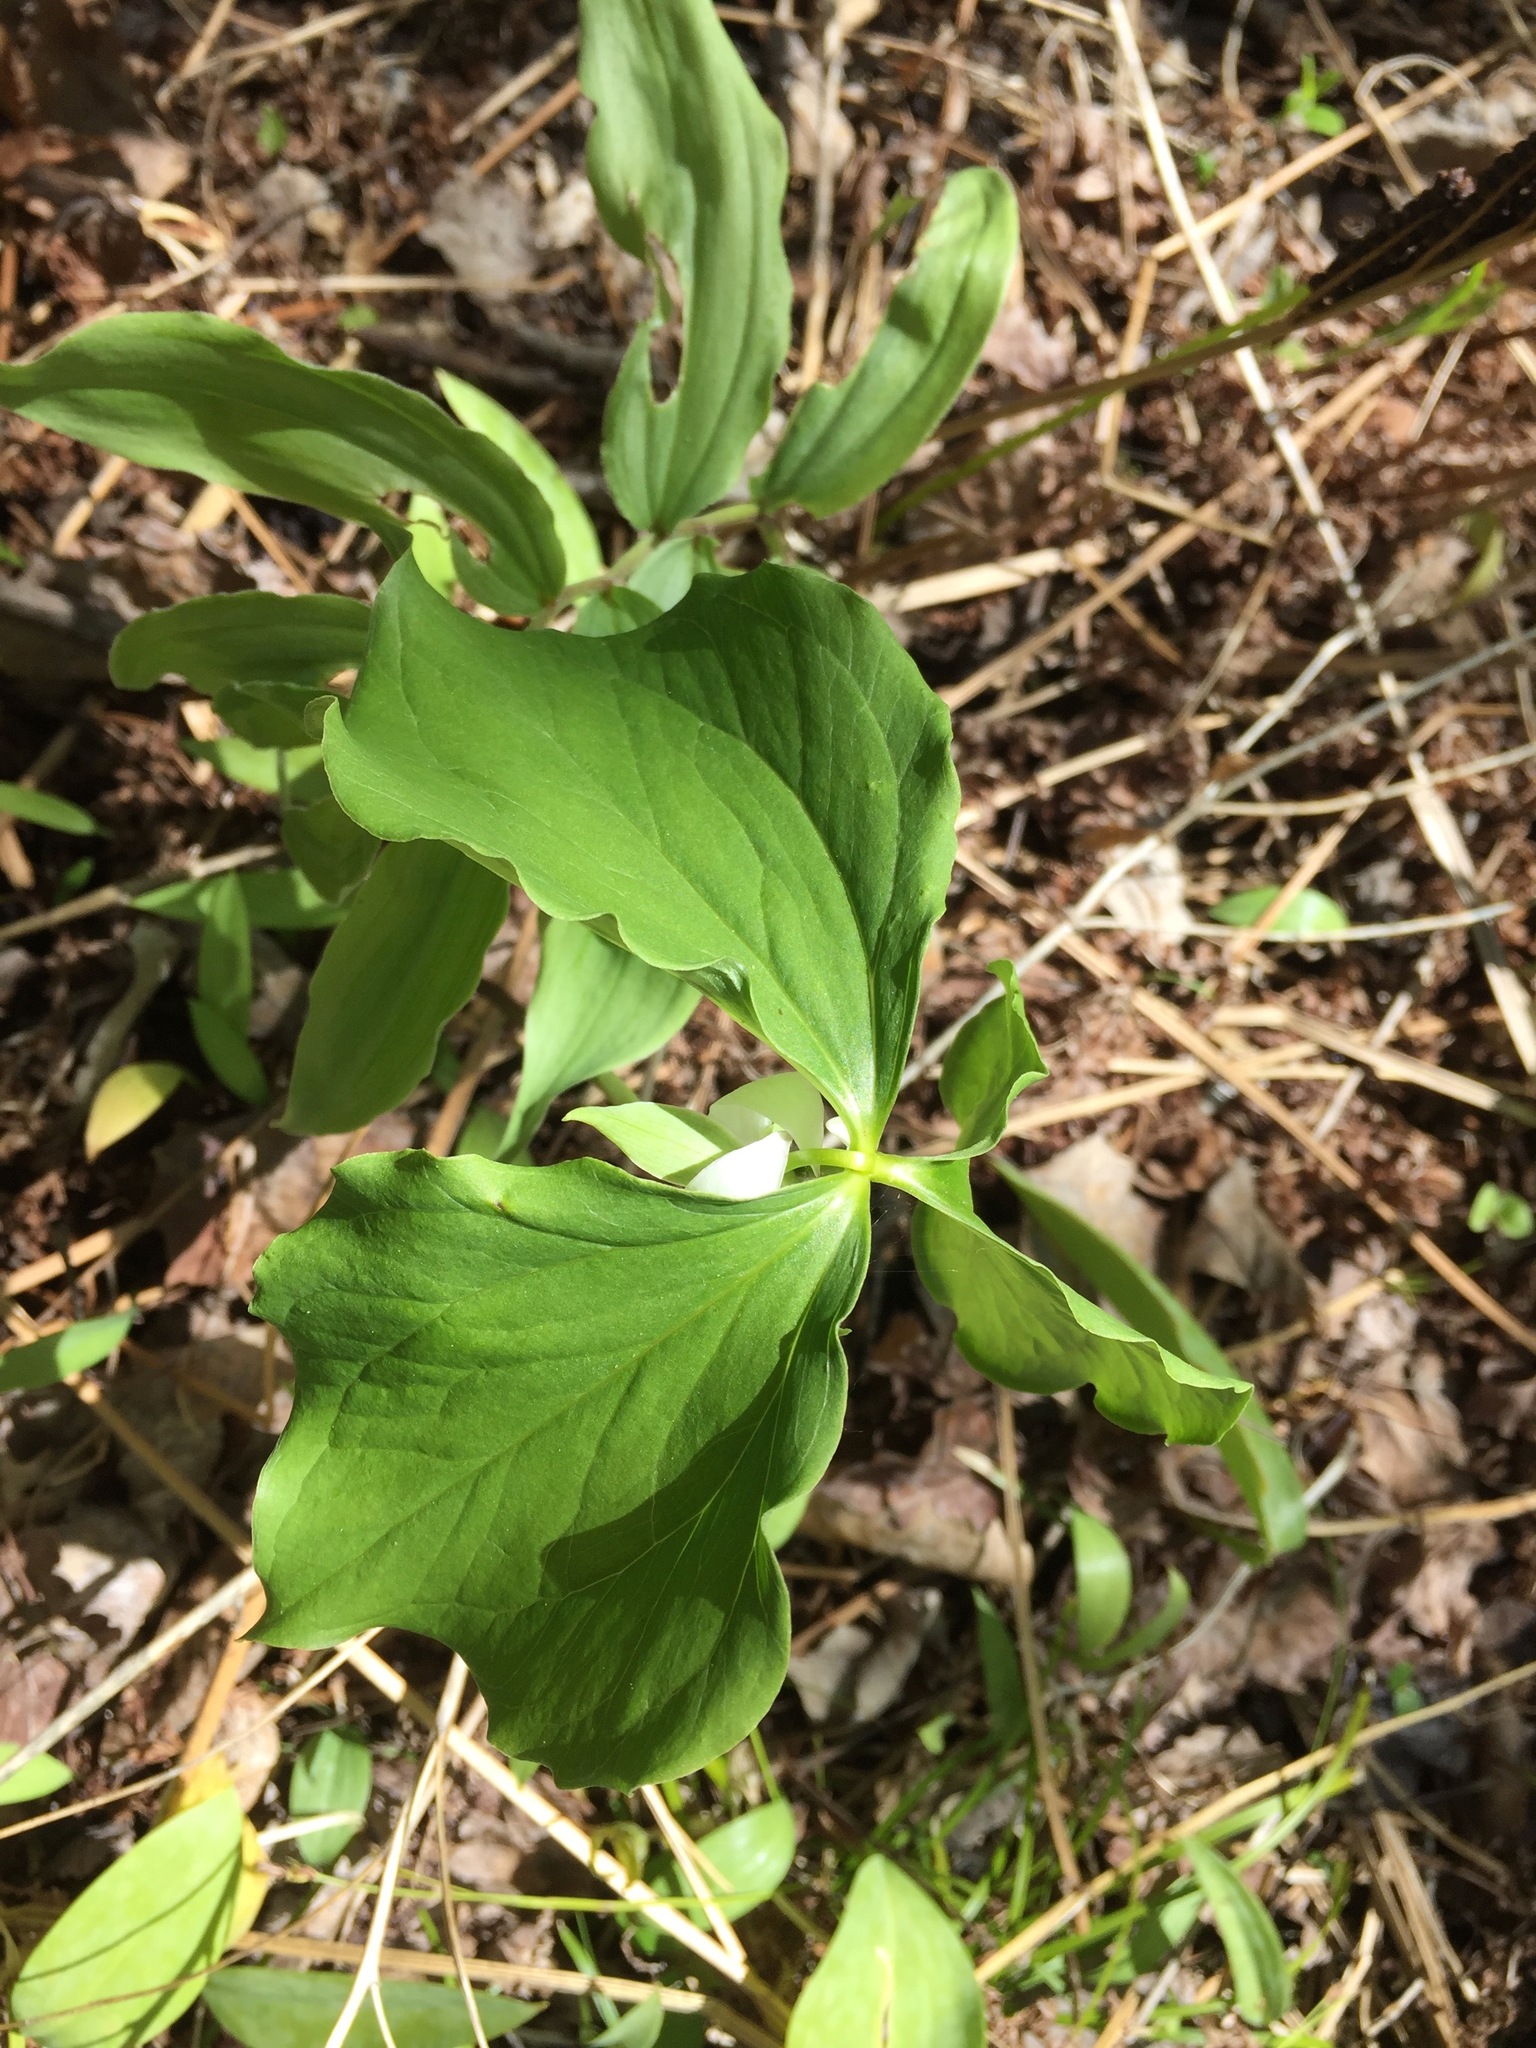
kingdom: Plantae
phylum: Tracheophyta
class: Liliopsida
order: Liliales
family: Melanthiaceae
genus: Trillium
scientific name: Trillium cernuum
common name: Nodding trillium
